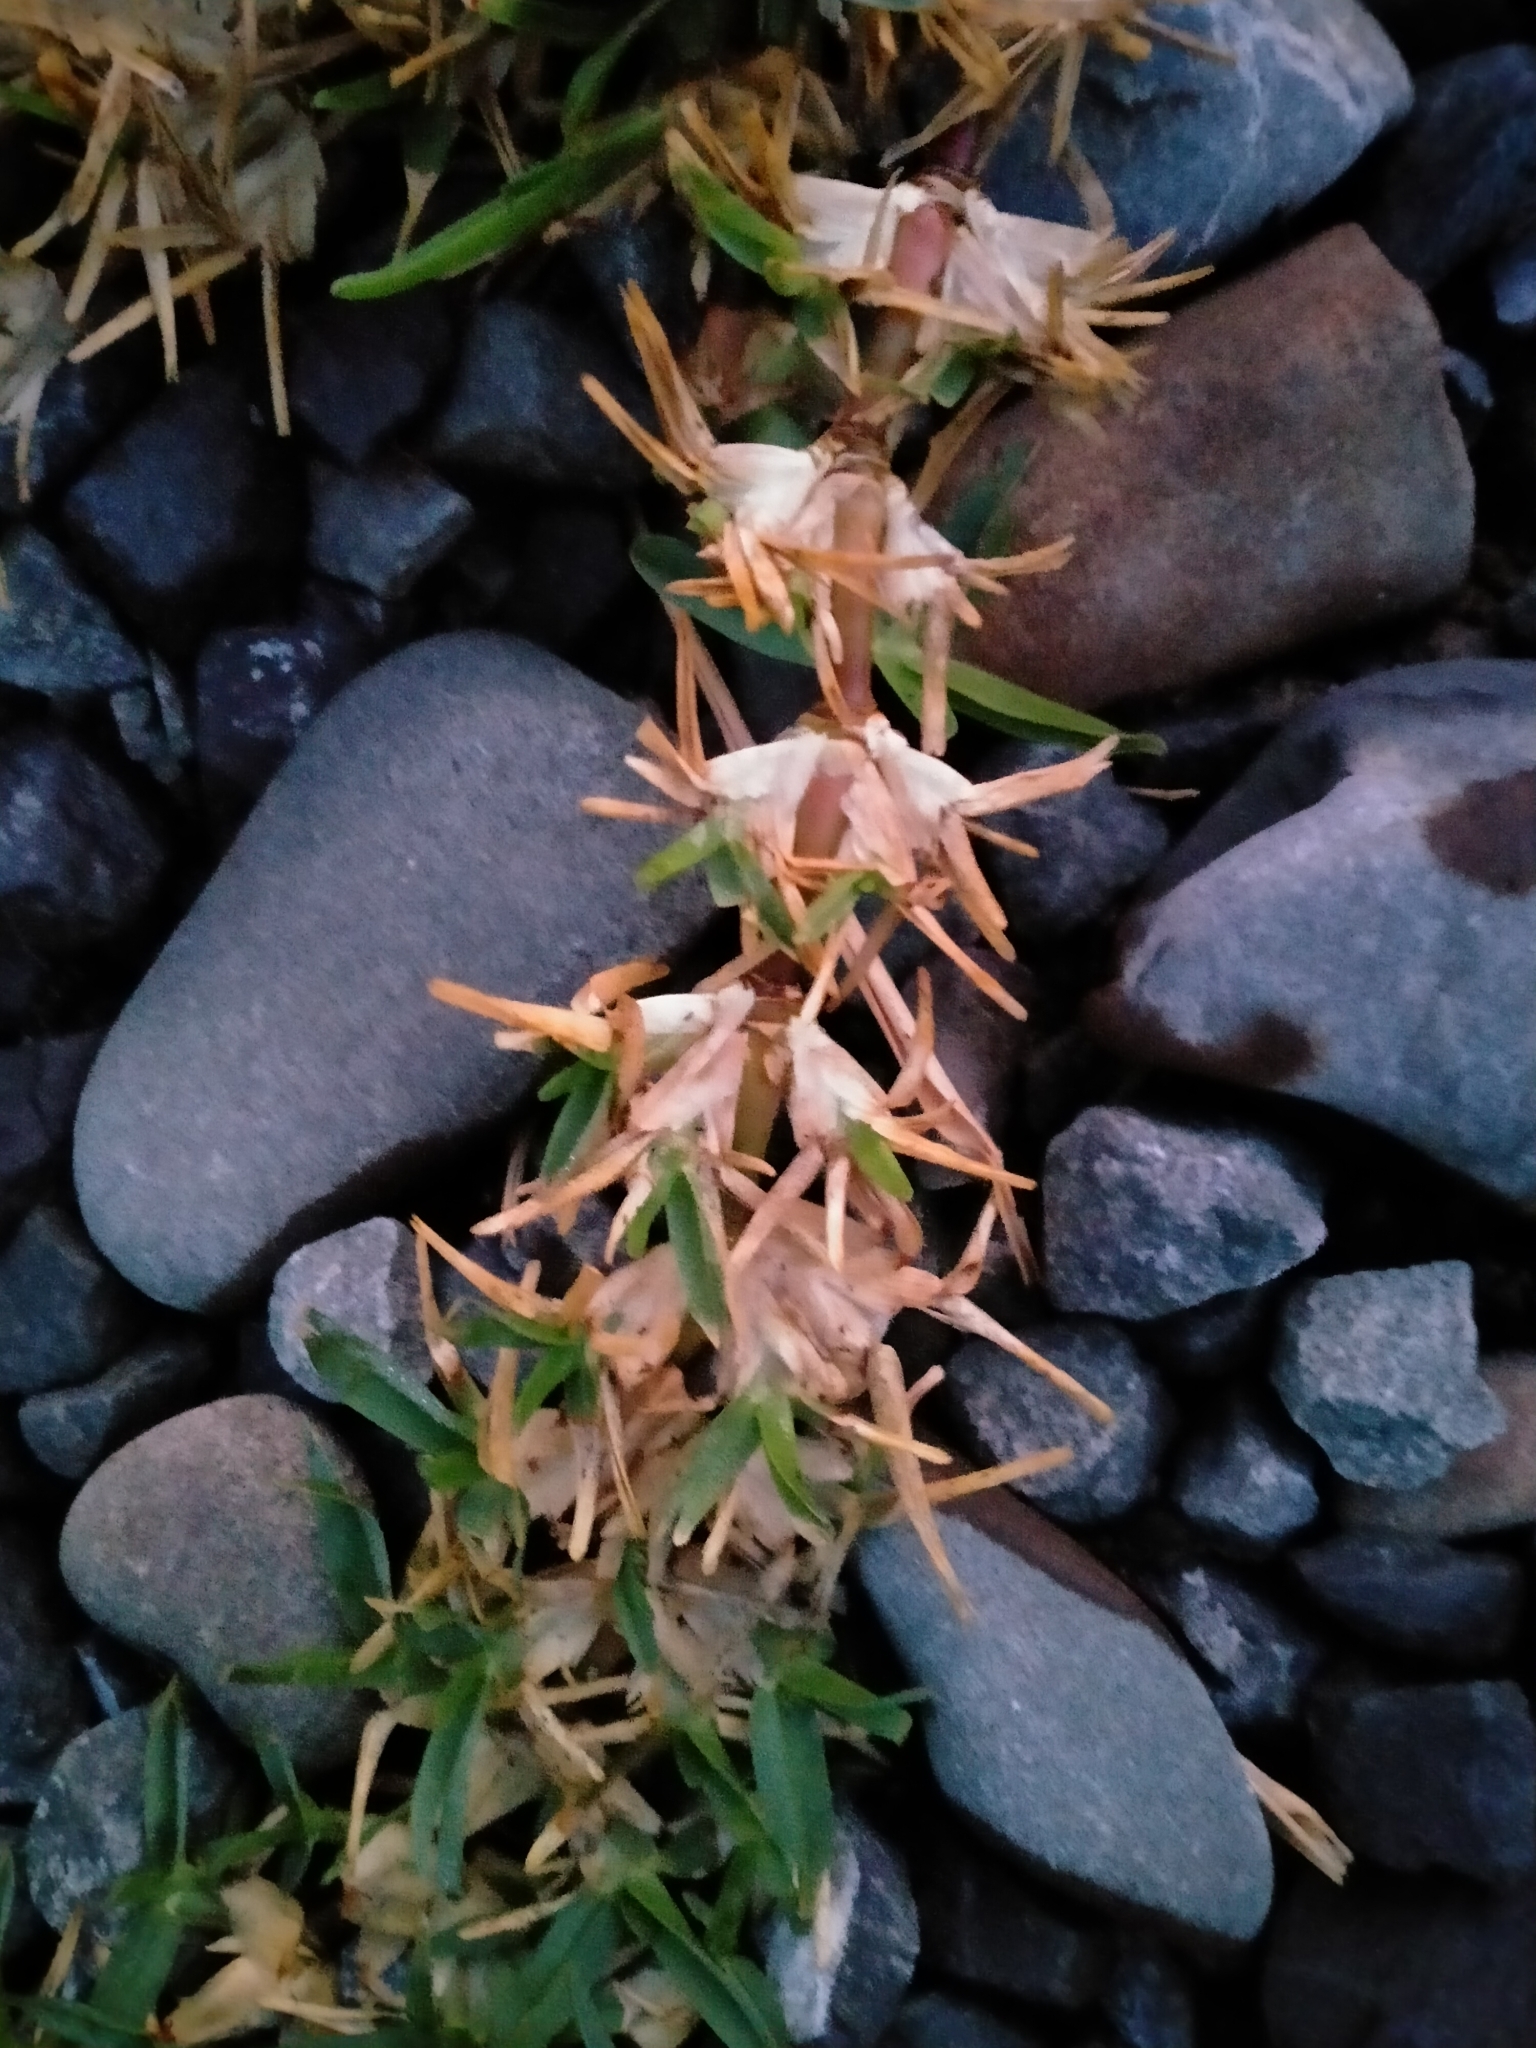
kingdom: Plantae
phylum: Tracheophyta
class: Liliopsida
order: Poales
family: Poaceae
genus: Cenchrus
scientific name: Cenchrus clandestinus
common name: Kikuyugrass
